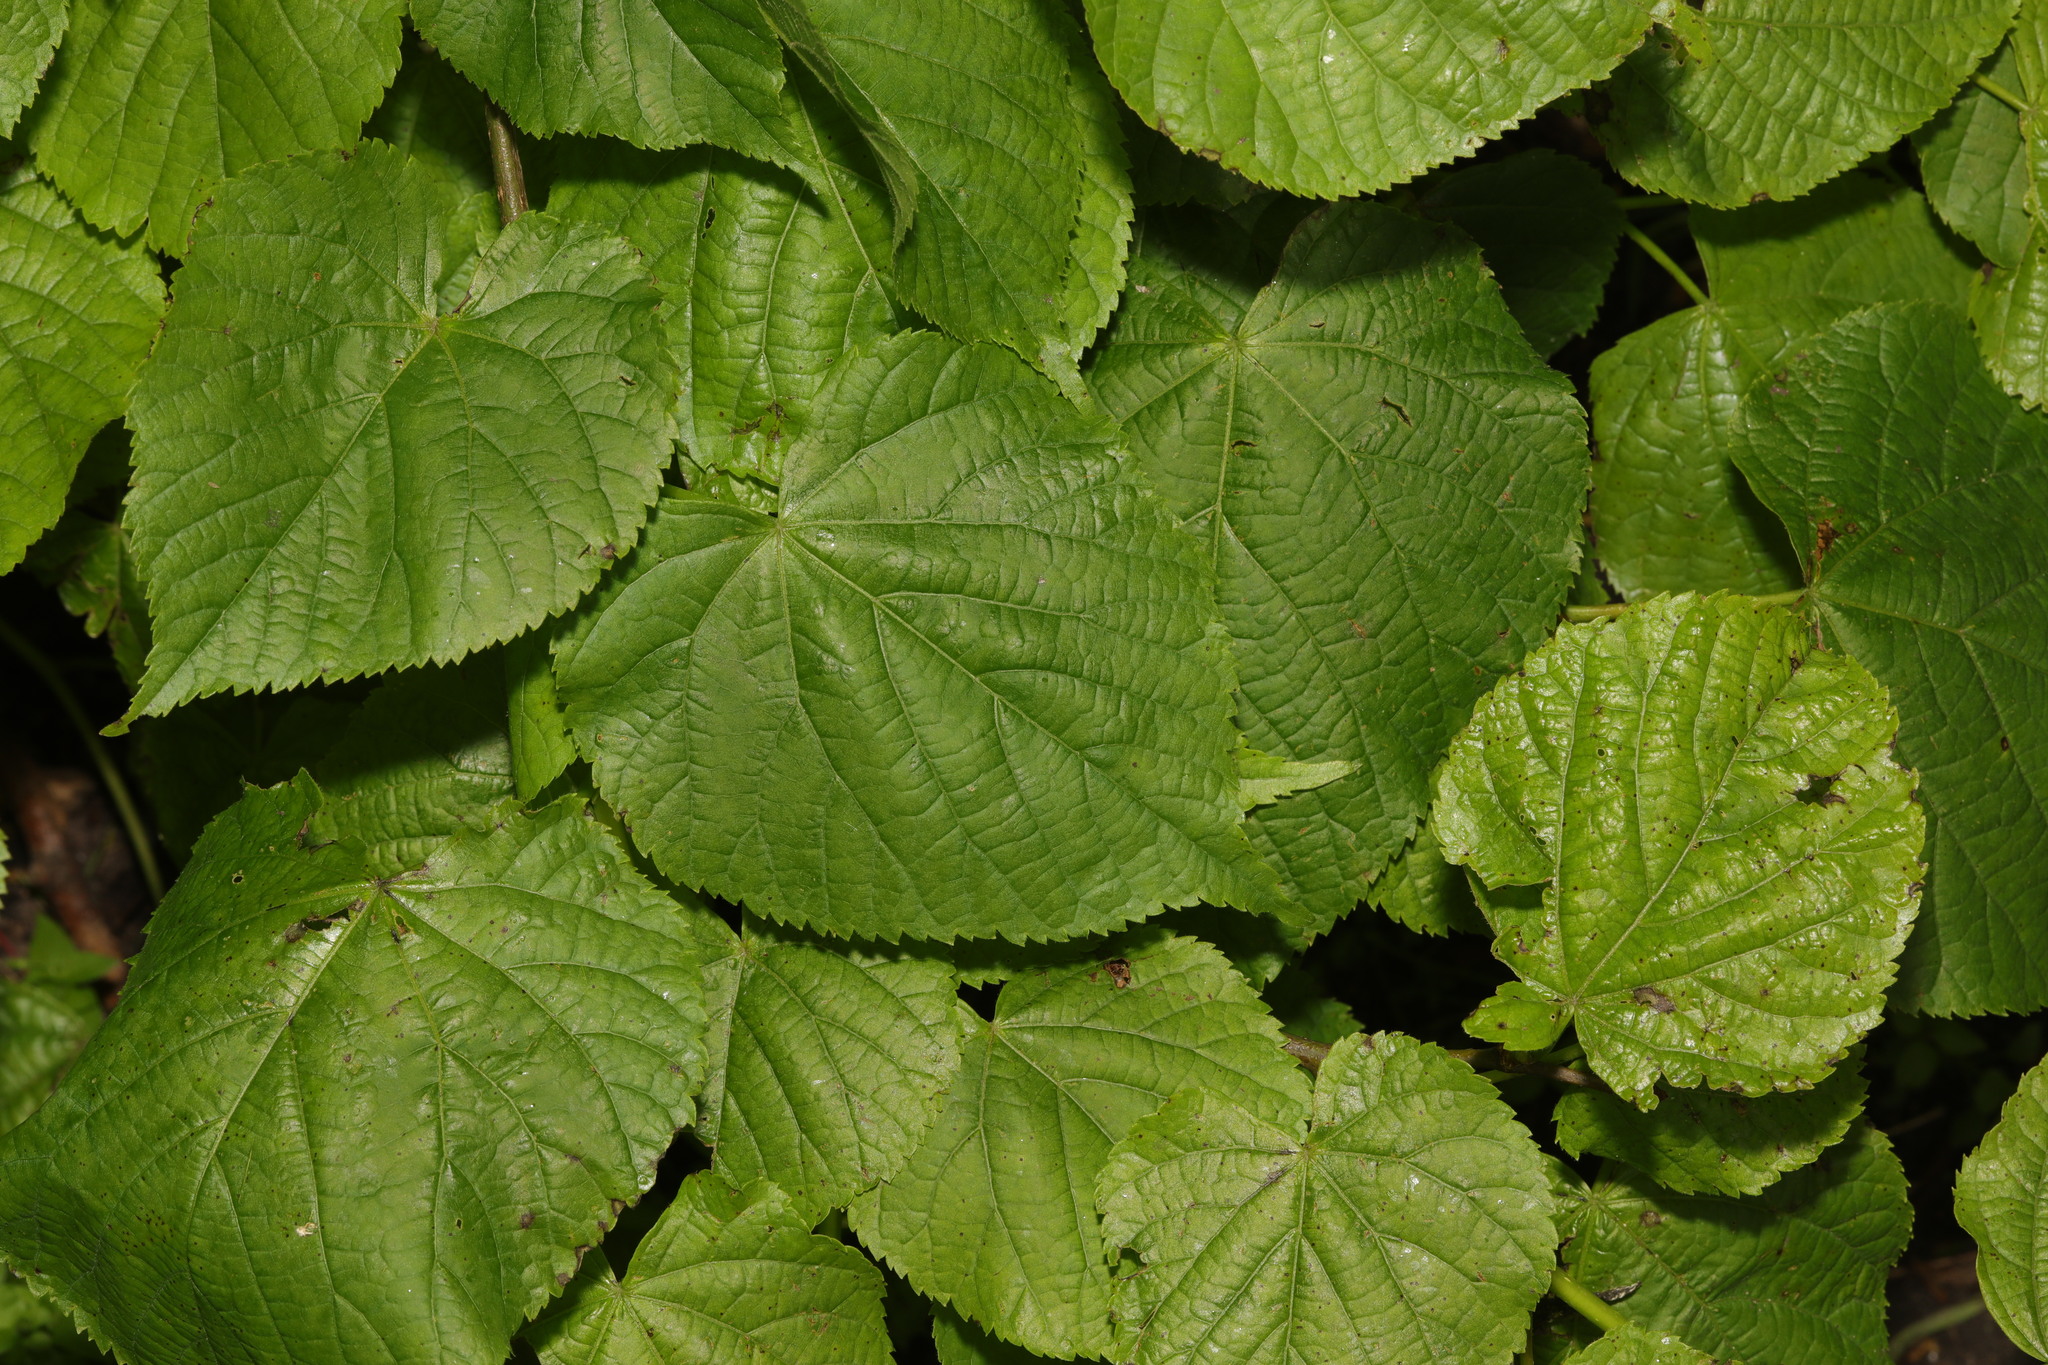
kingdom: Plantae
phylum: Tracheophyta
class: Magnoliopsida
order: Malvales
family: Malvaceae
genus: Tilia
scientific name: Tilia europaea
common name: European linden
